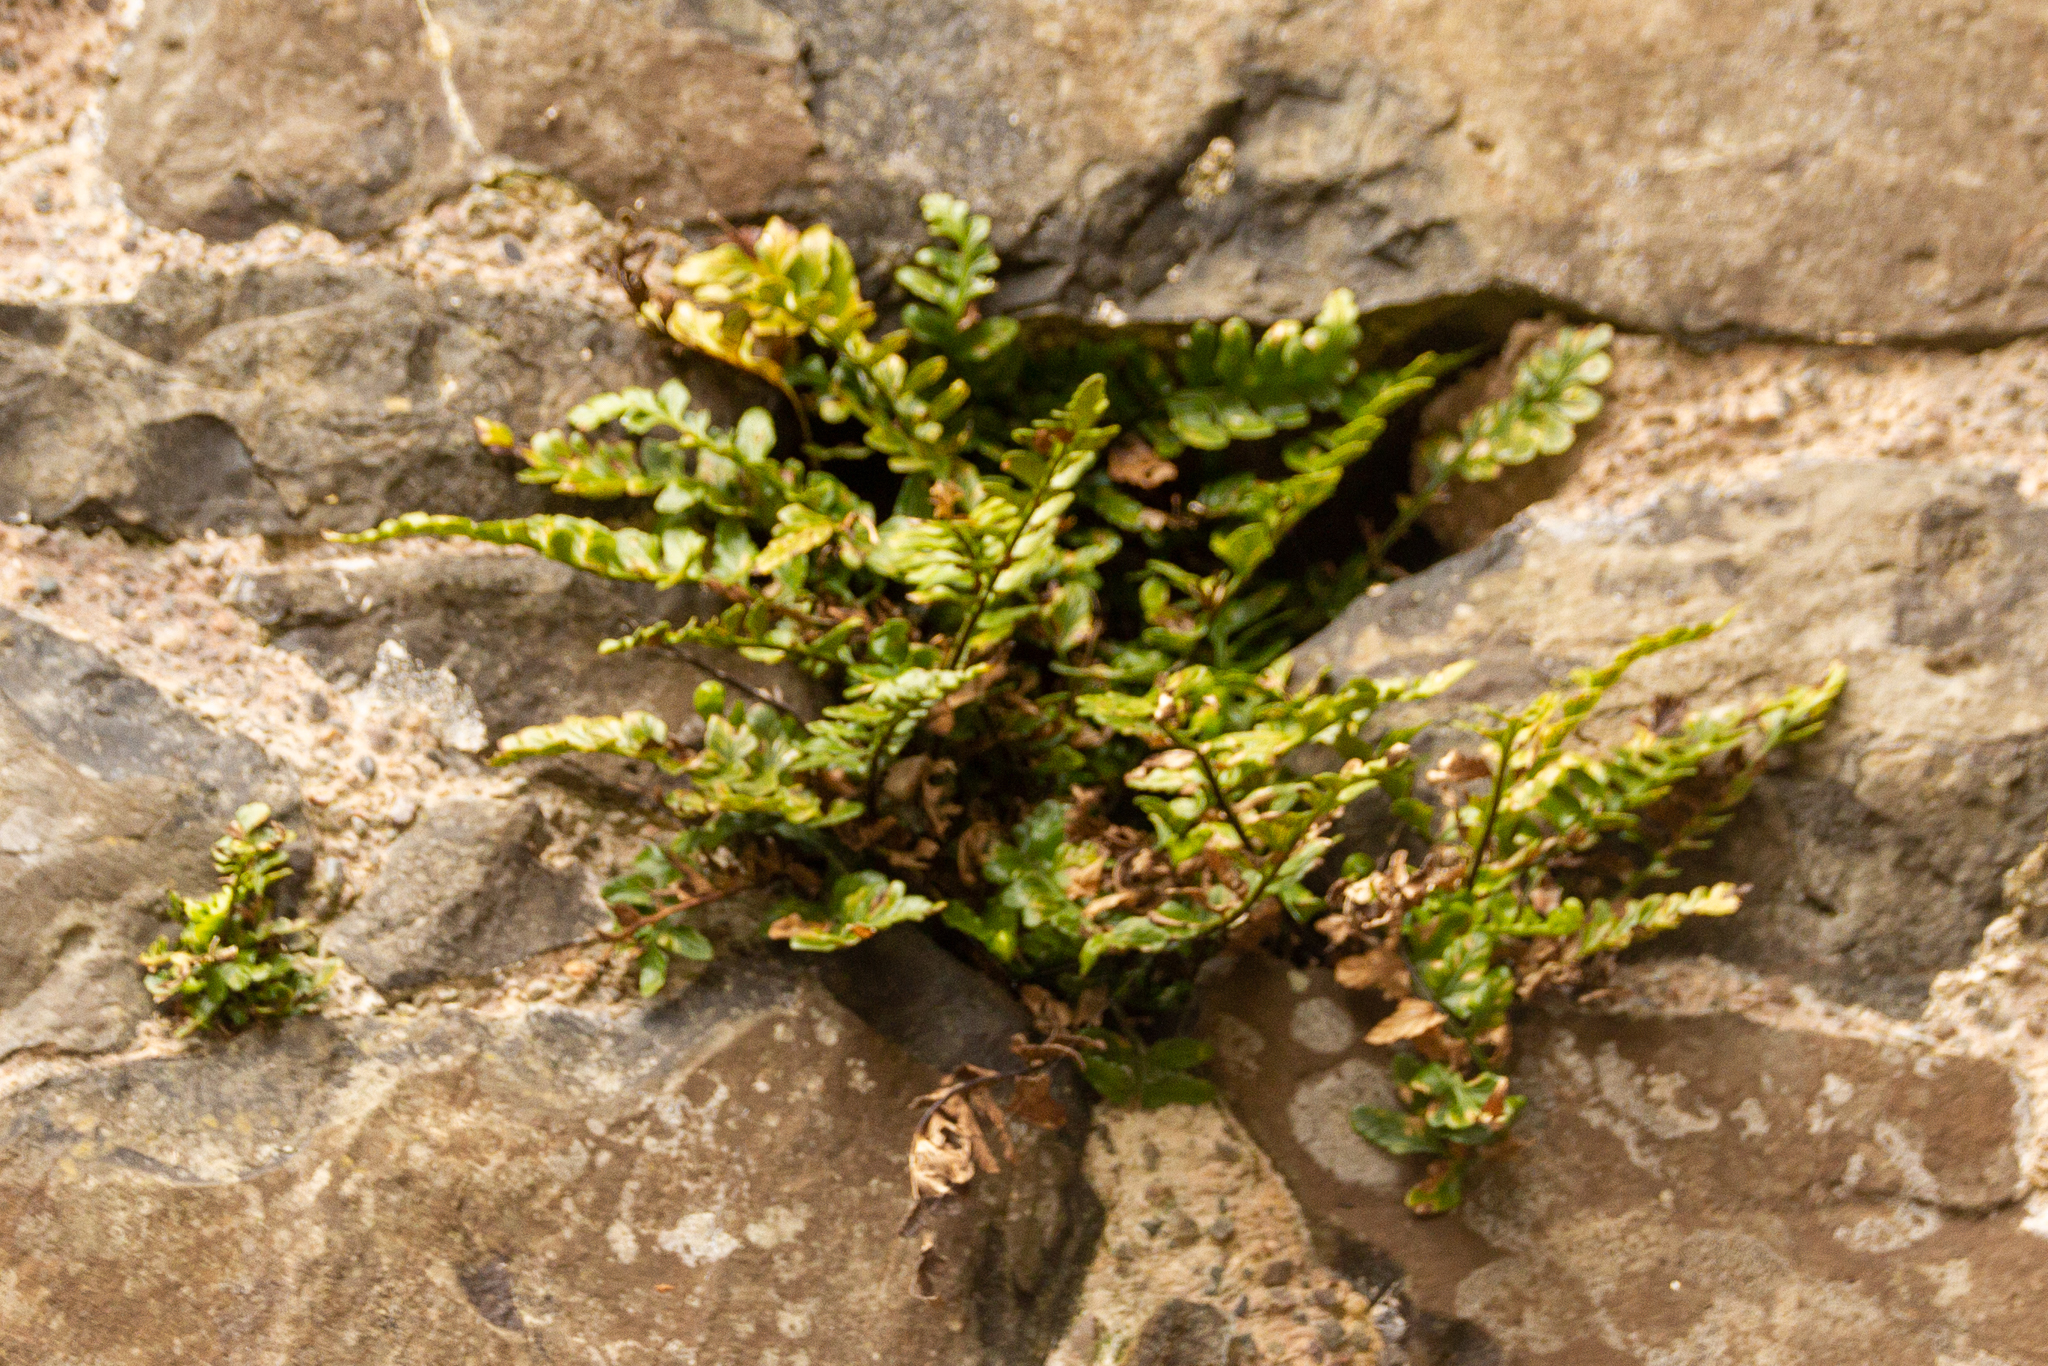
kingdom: Plantae
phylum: Tracheophyta
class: Polypodiopsida
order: Polypodiales
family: Aspleniaceae
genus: Asplenium
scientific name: Asplenium marinum
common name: Sea spleenwort
